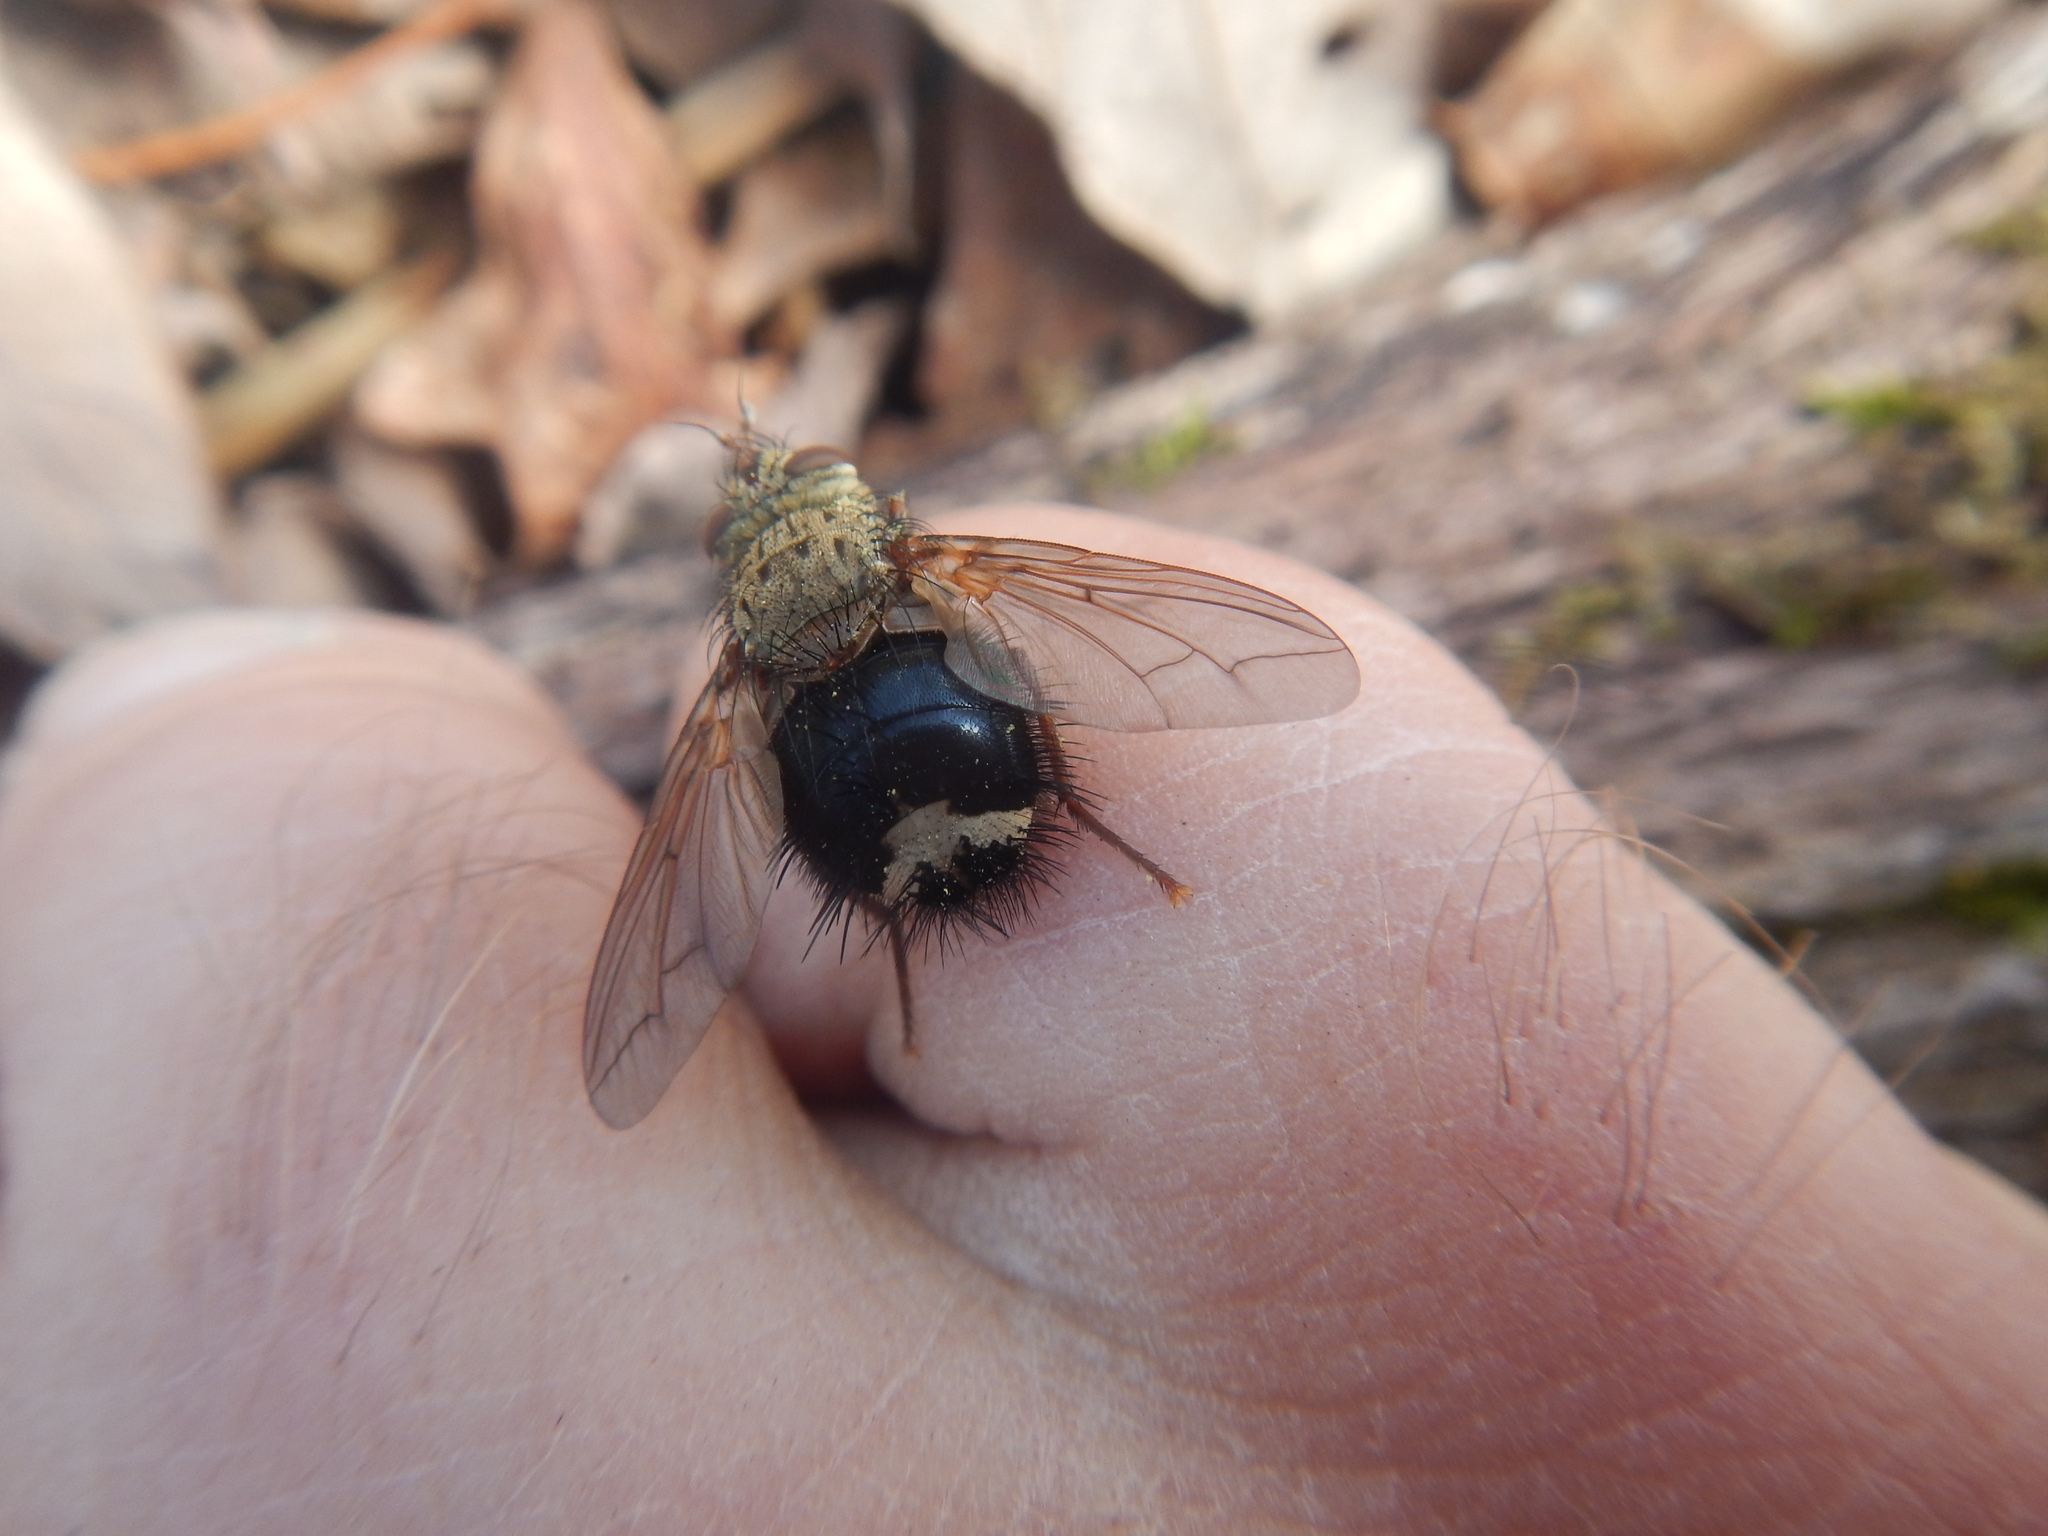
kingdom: Animalia
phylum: Arthropoda
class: Insecta
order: Diptera
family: Tachinidae
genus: Epalpus
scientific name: Epalpus signifer
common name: Early tachinid fly
